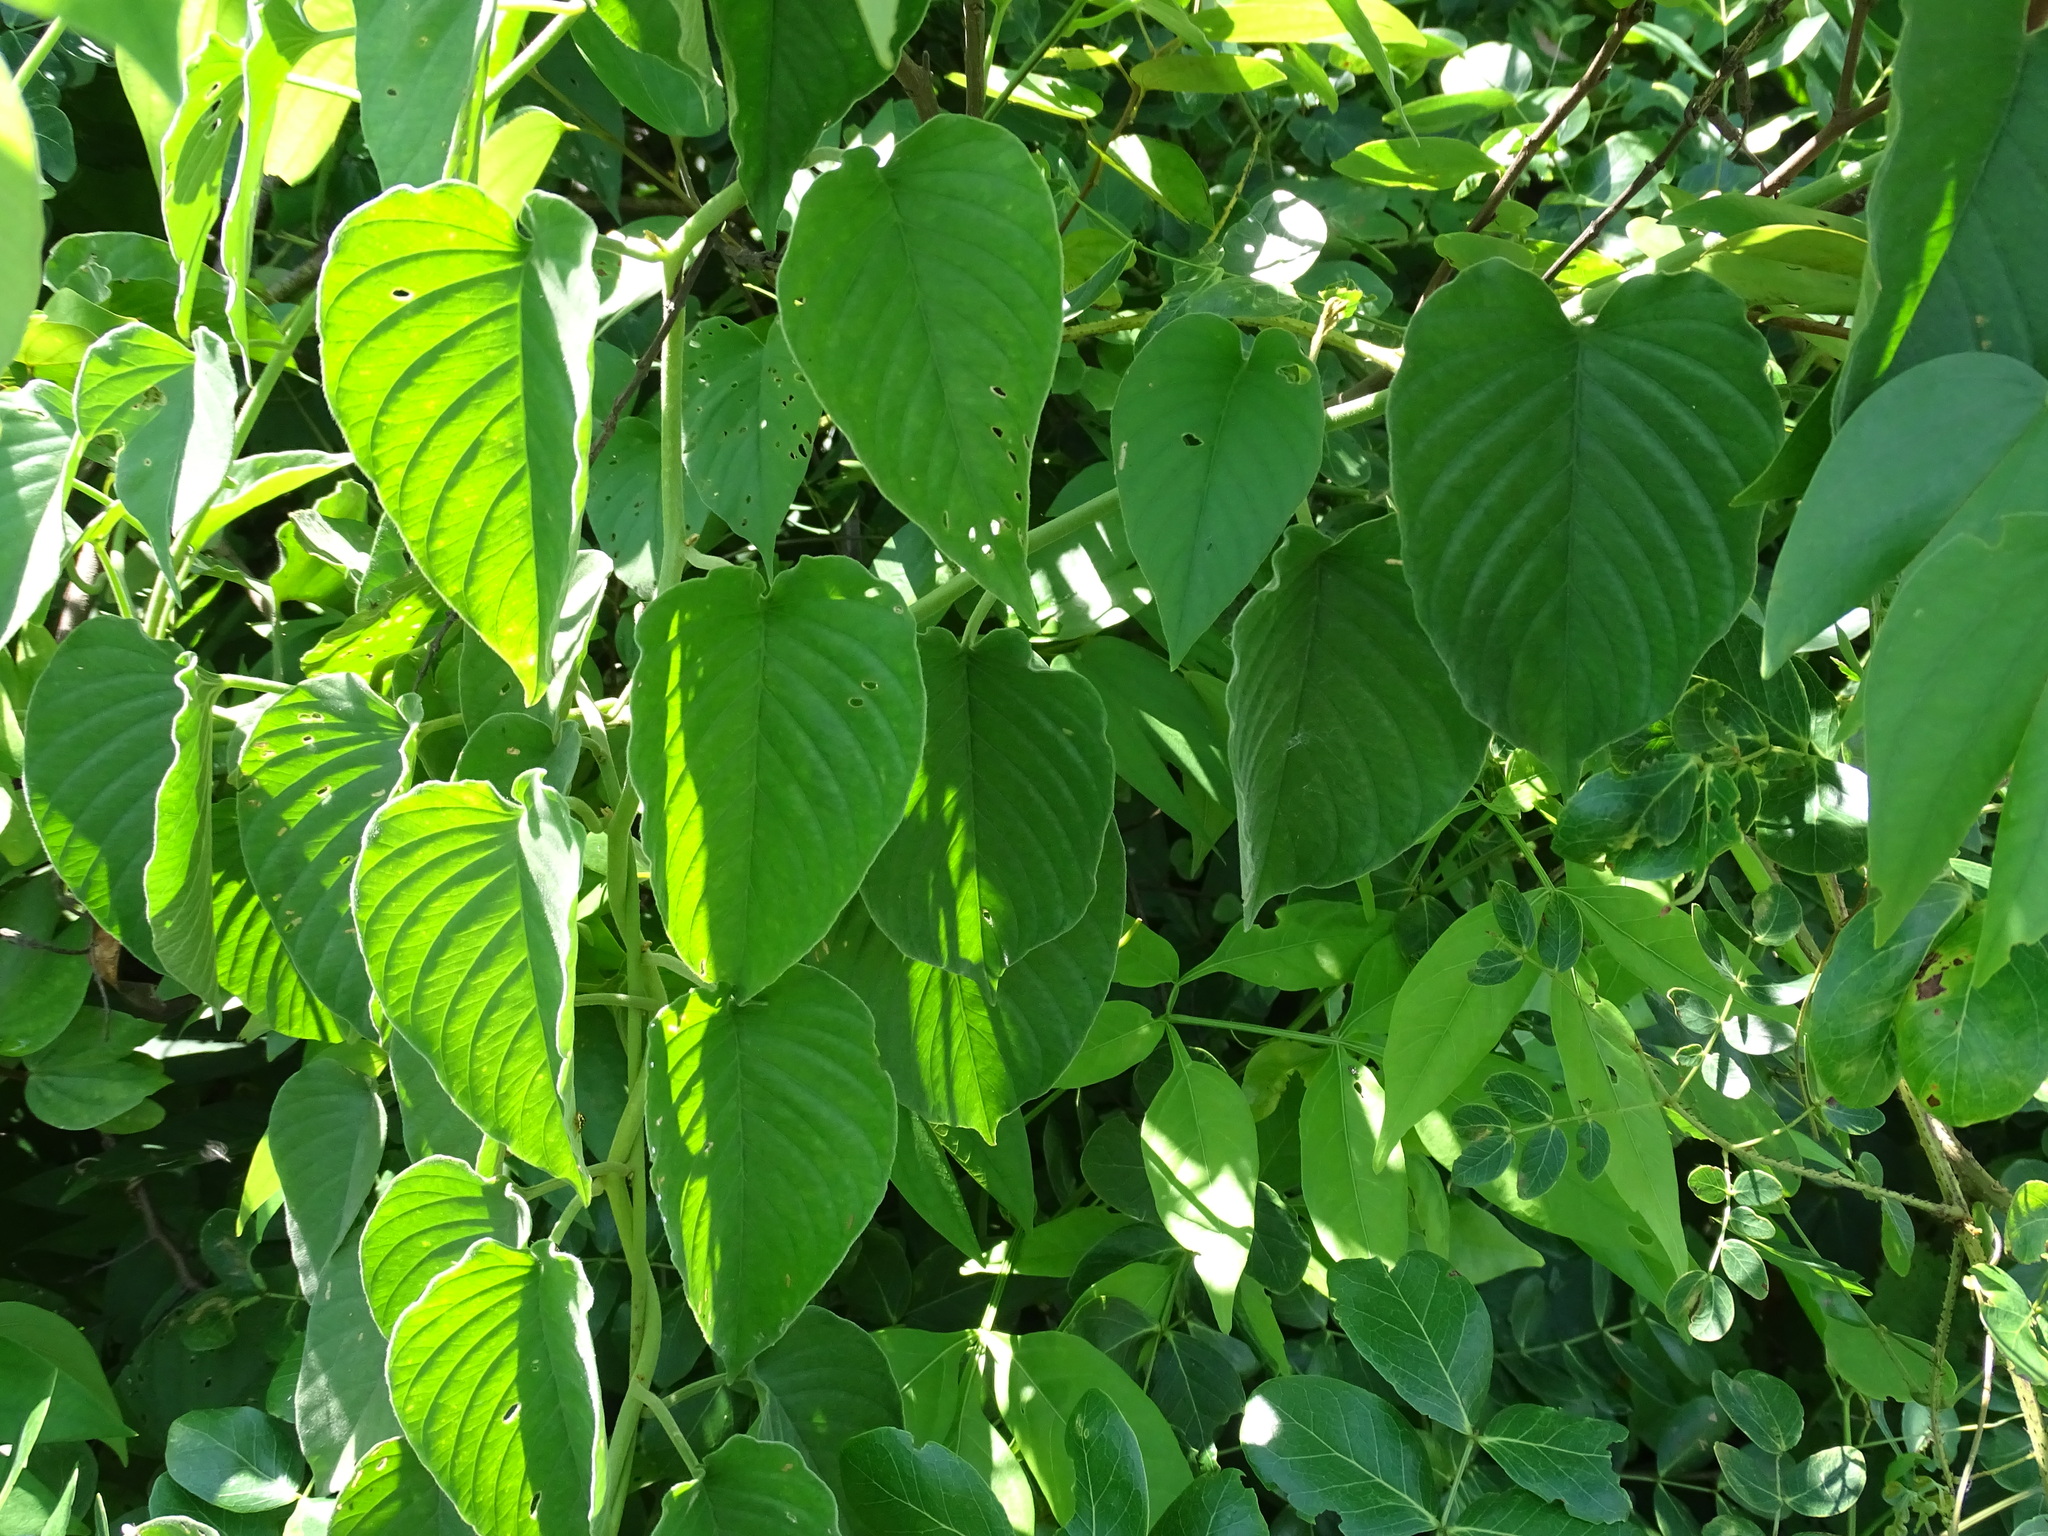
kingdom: Plantae
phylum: Tracheophyta
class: Magnoliopsida
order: Solanales
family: Convolvulaceae
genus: Odonellia
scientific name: Odonellia hirtiflora
